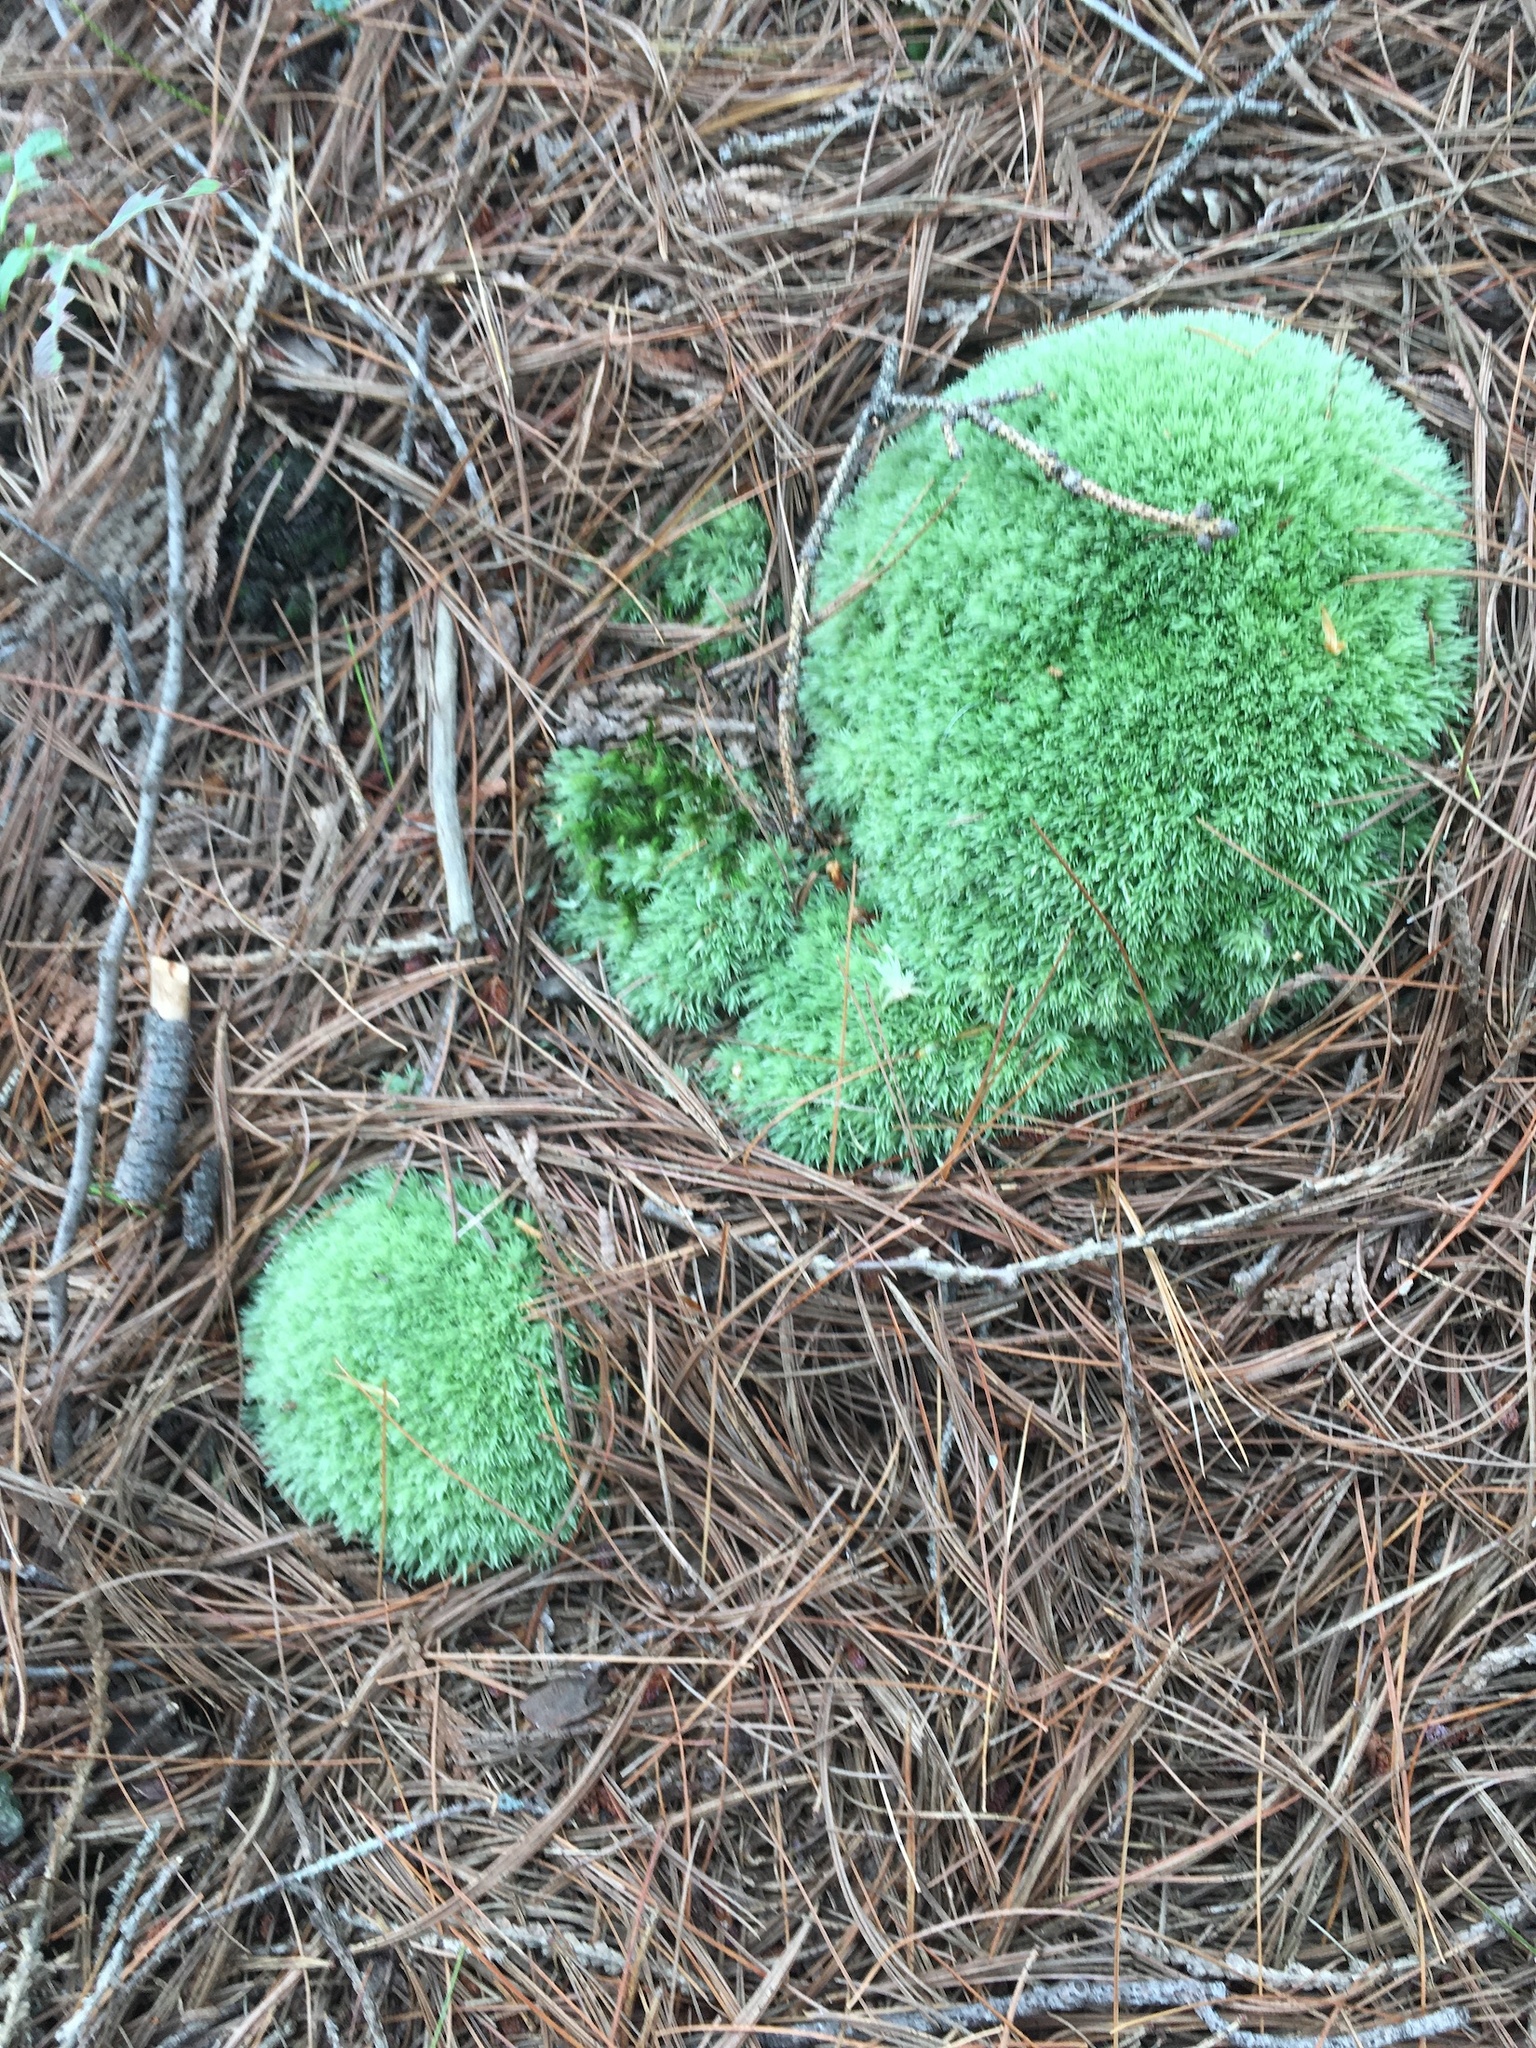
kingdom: Plantae
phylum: Bryophyta
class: Bryopsida
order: Dicranales
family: Leucobryaceae
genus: Leucobryum
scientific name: Leucobryum glaucum
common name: Large white-moss
